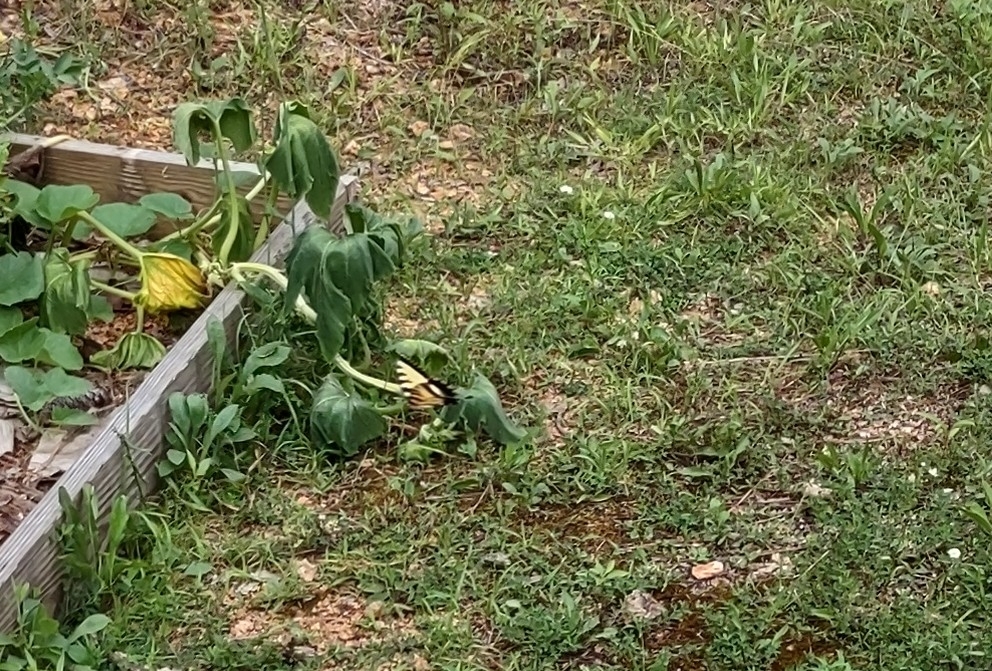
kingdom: Animalia
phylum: Arthropoda
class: Insecta
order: Lepidoptera
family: Papilionidae
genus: Papilio
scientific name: Papilio glaucus
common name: Tiger swallowtail
